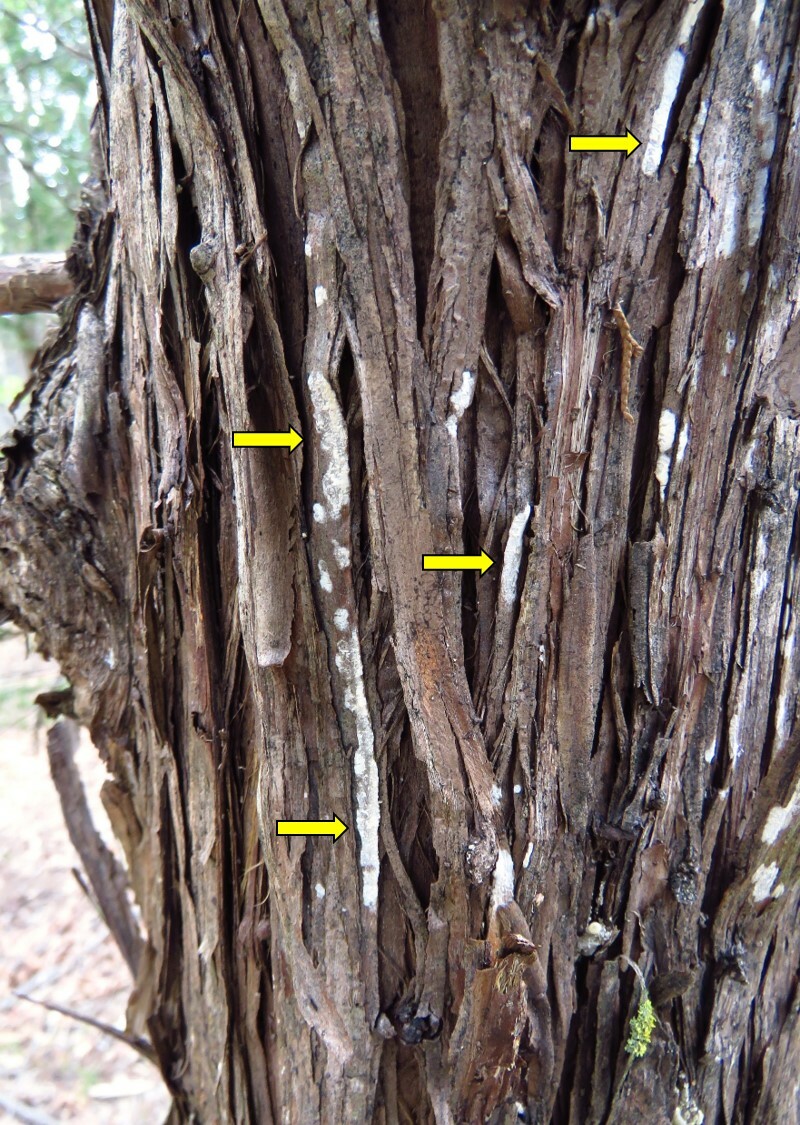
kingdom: Fungi
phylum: Basidiomycota
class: Agaricomycetes
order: Agaricales
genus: Dendrothele
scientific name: Dendrothele nivosa
